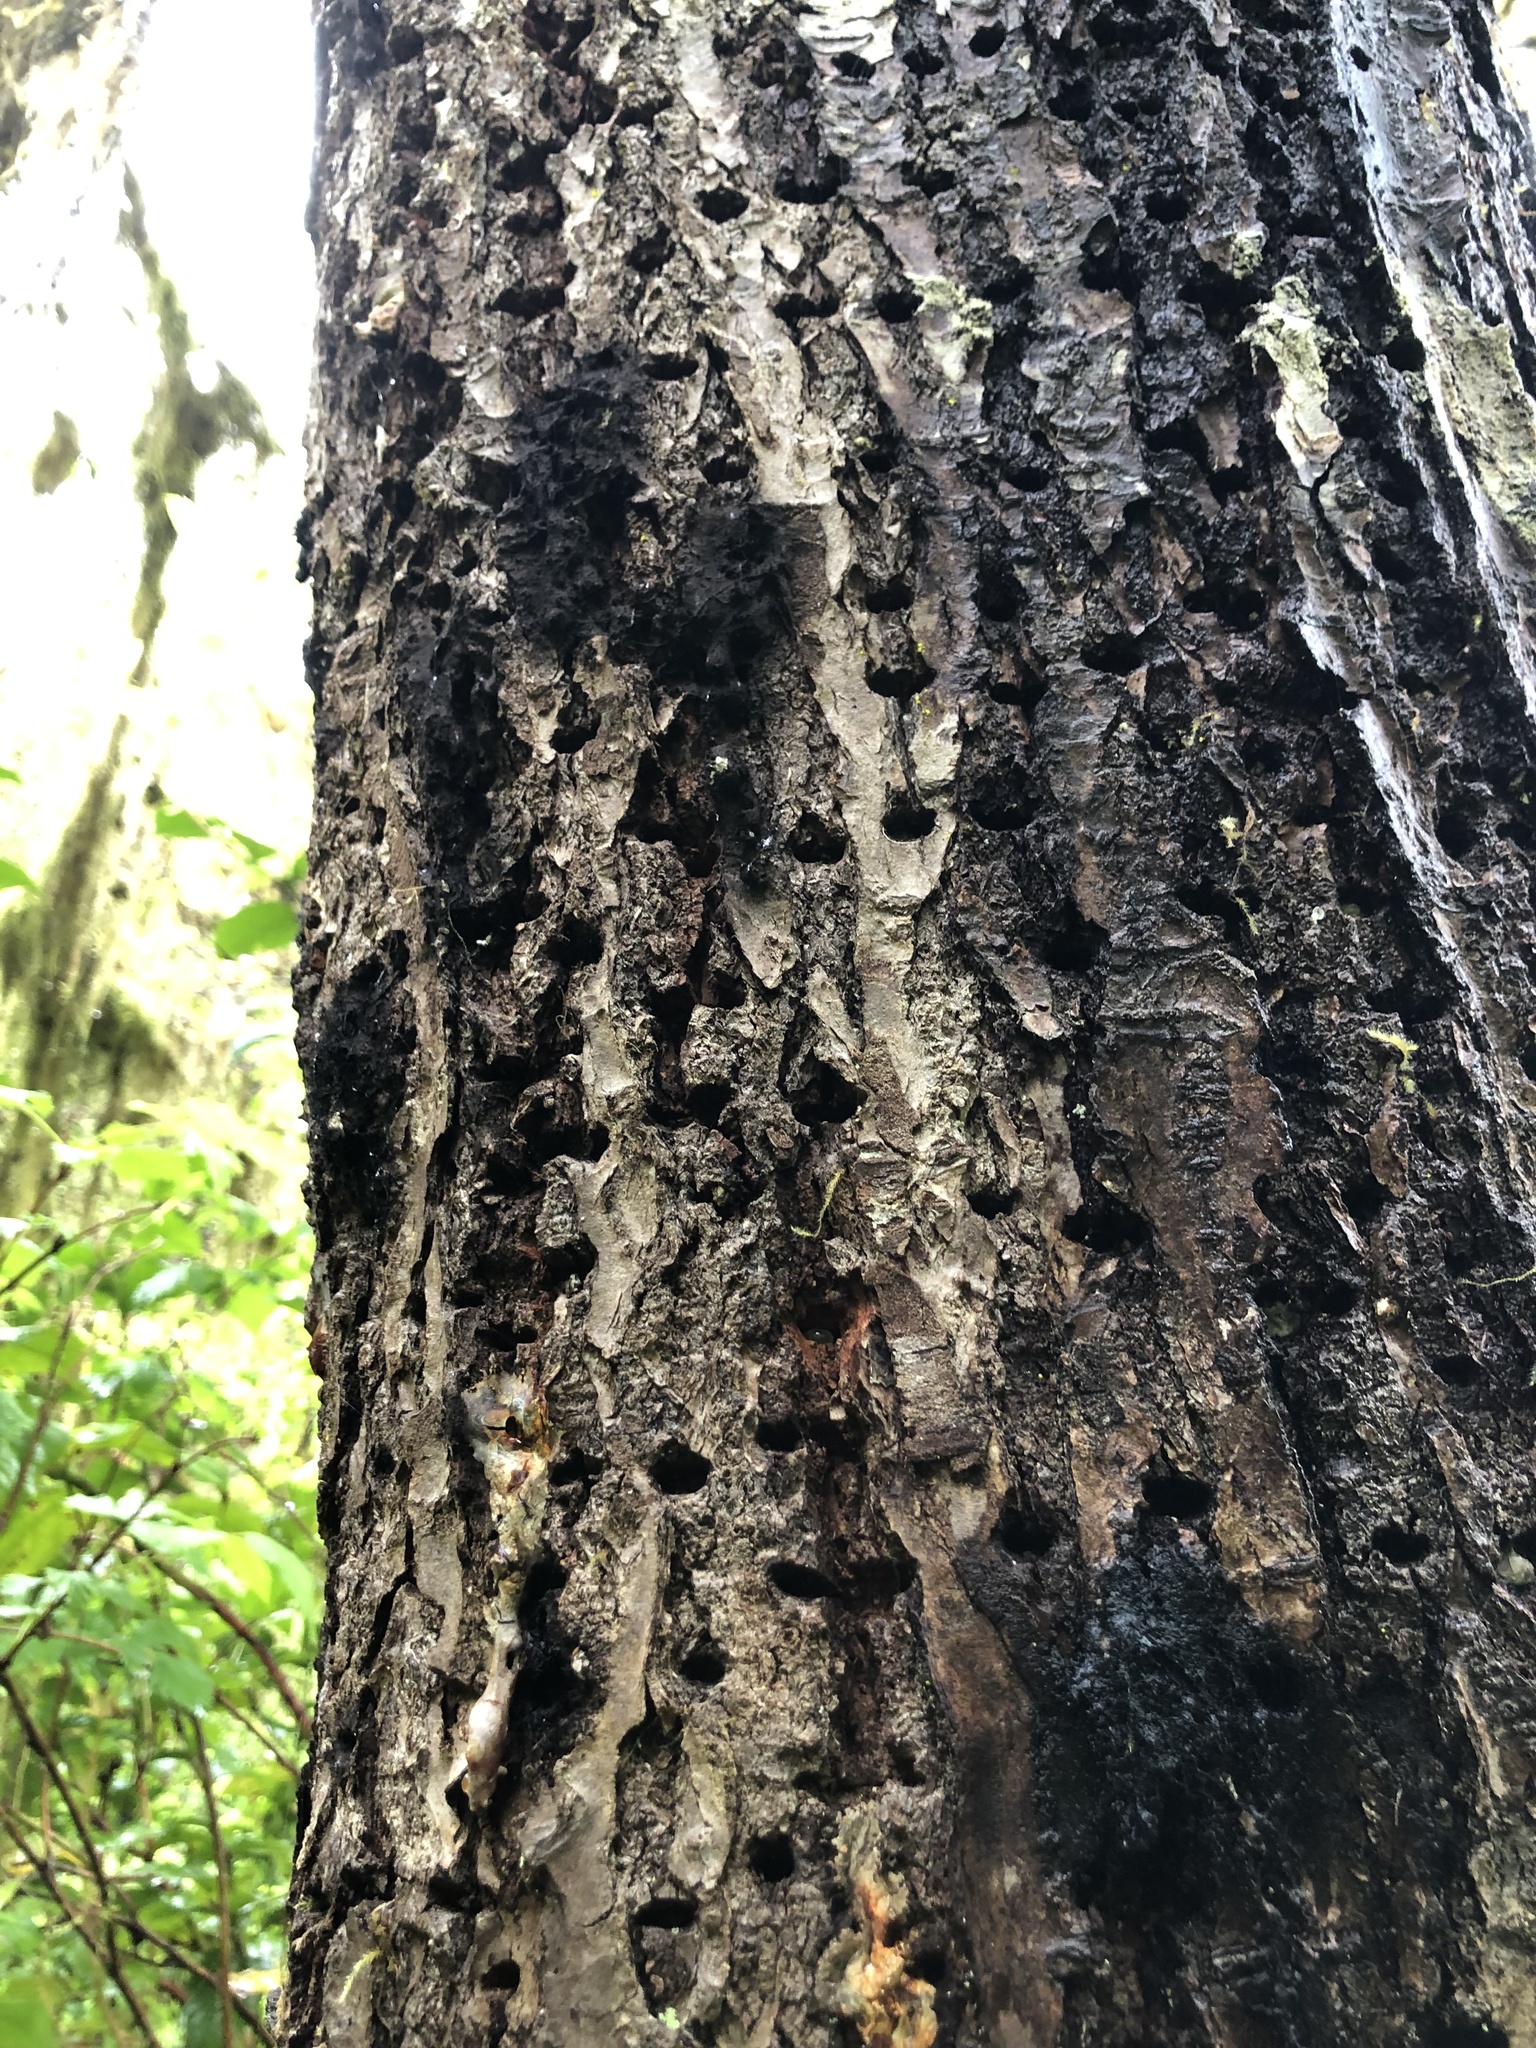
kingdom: Animalia
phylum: Chordata
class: Aves
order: Piciformes
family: Picidae
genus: Sphyrapicus
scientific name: Sphyrapicus ruber
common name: Red-breasted sapsucker
